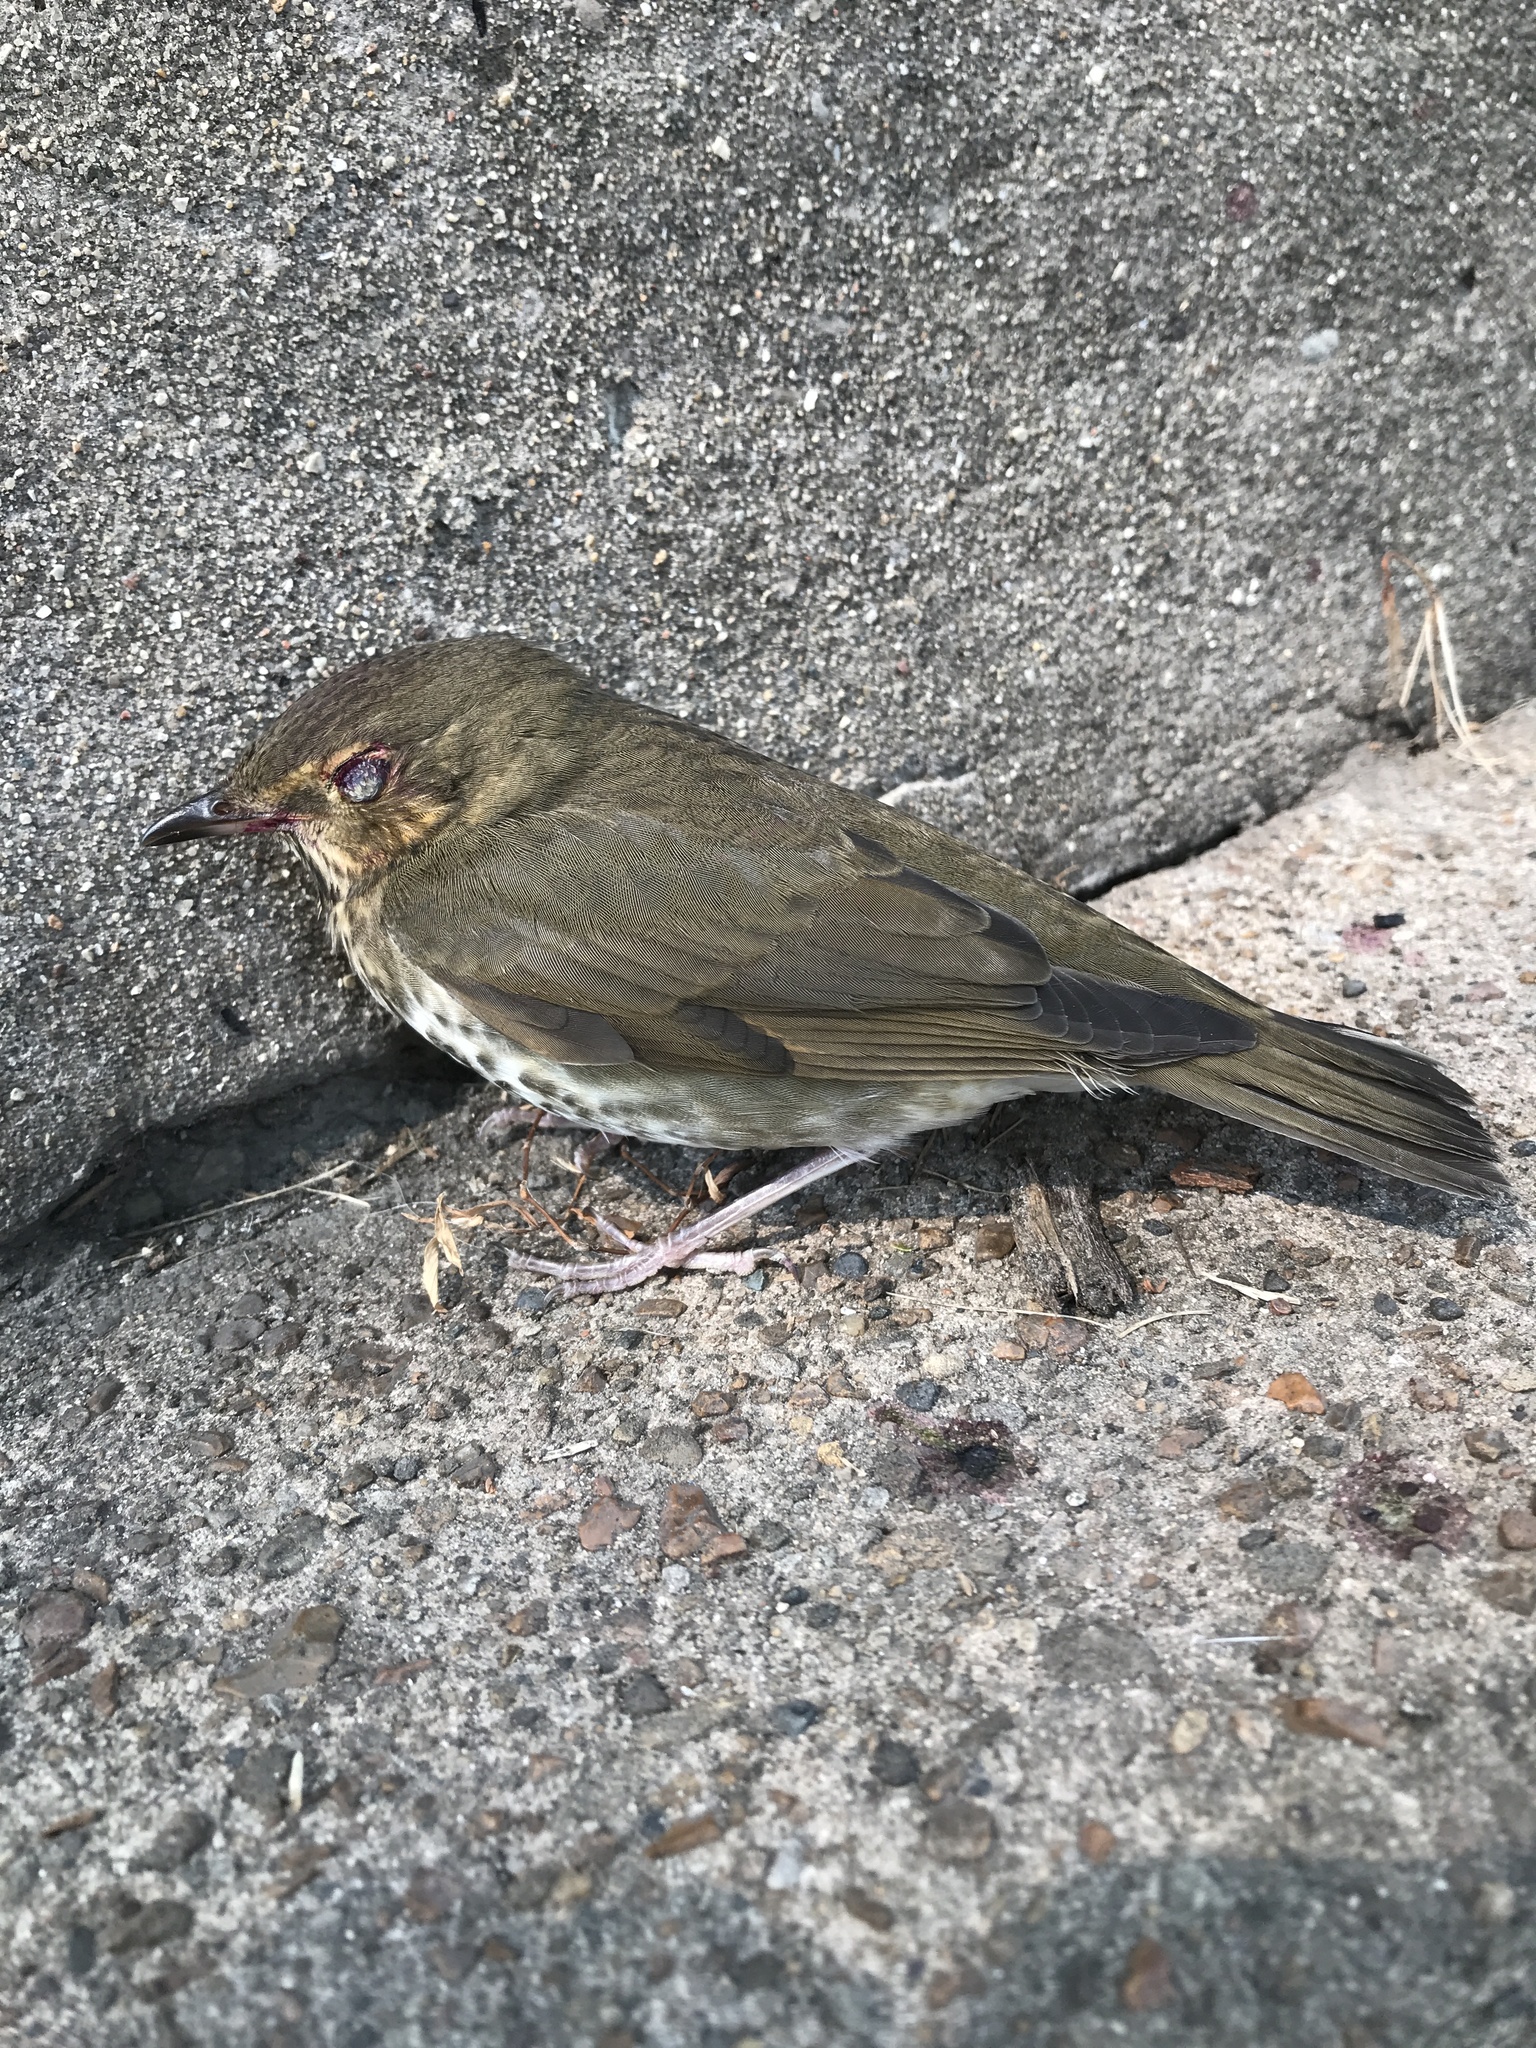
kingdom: Animalia
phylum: Chordata
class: Aves
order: Passeriformes
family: Turdidae
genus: Catharus
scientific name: Catharus ustulatus
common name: Swainson's thrush
